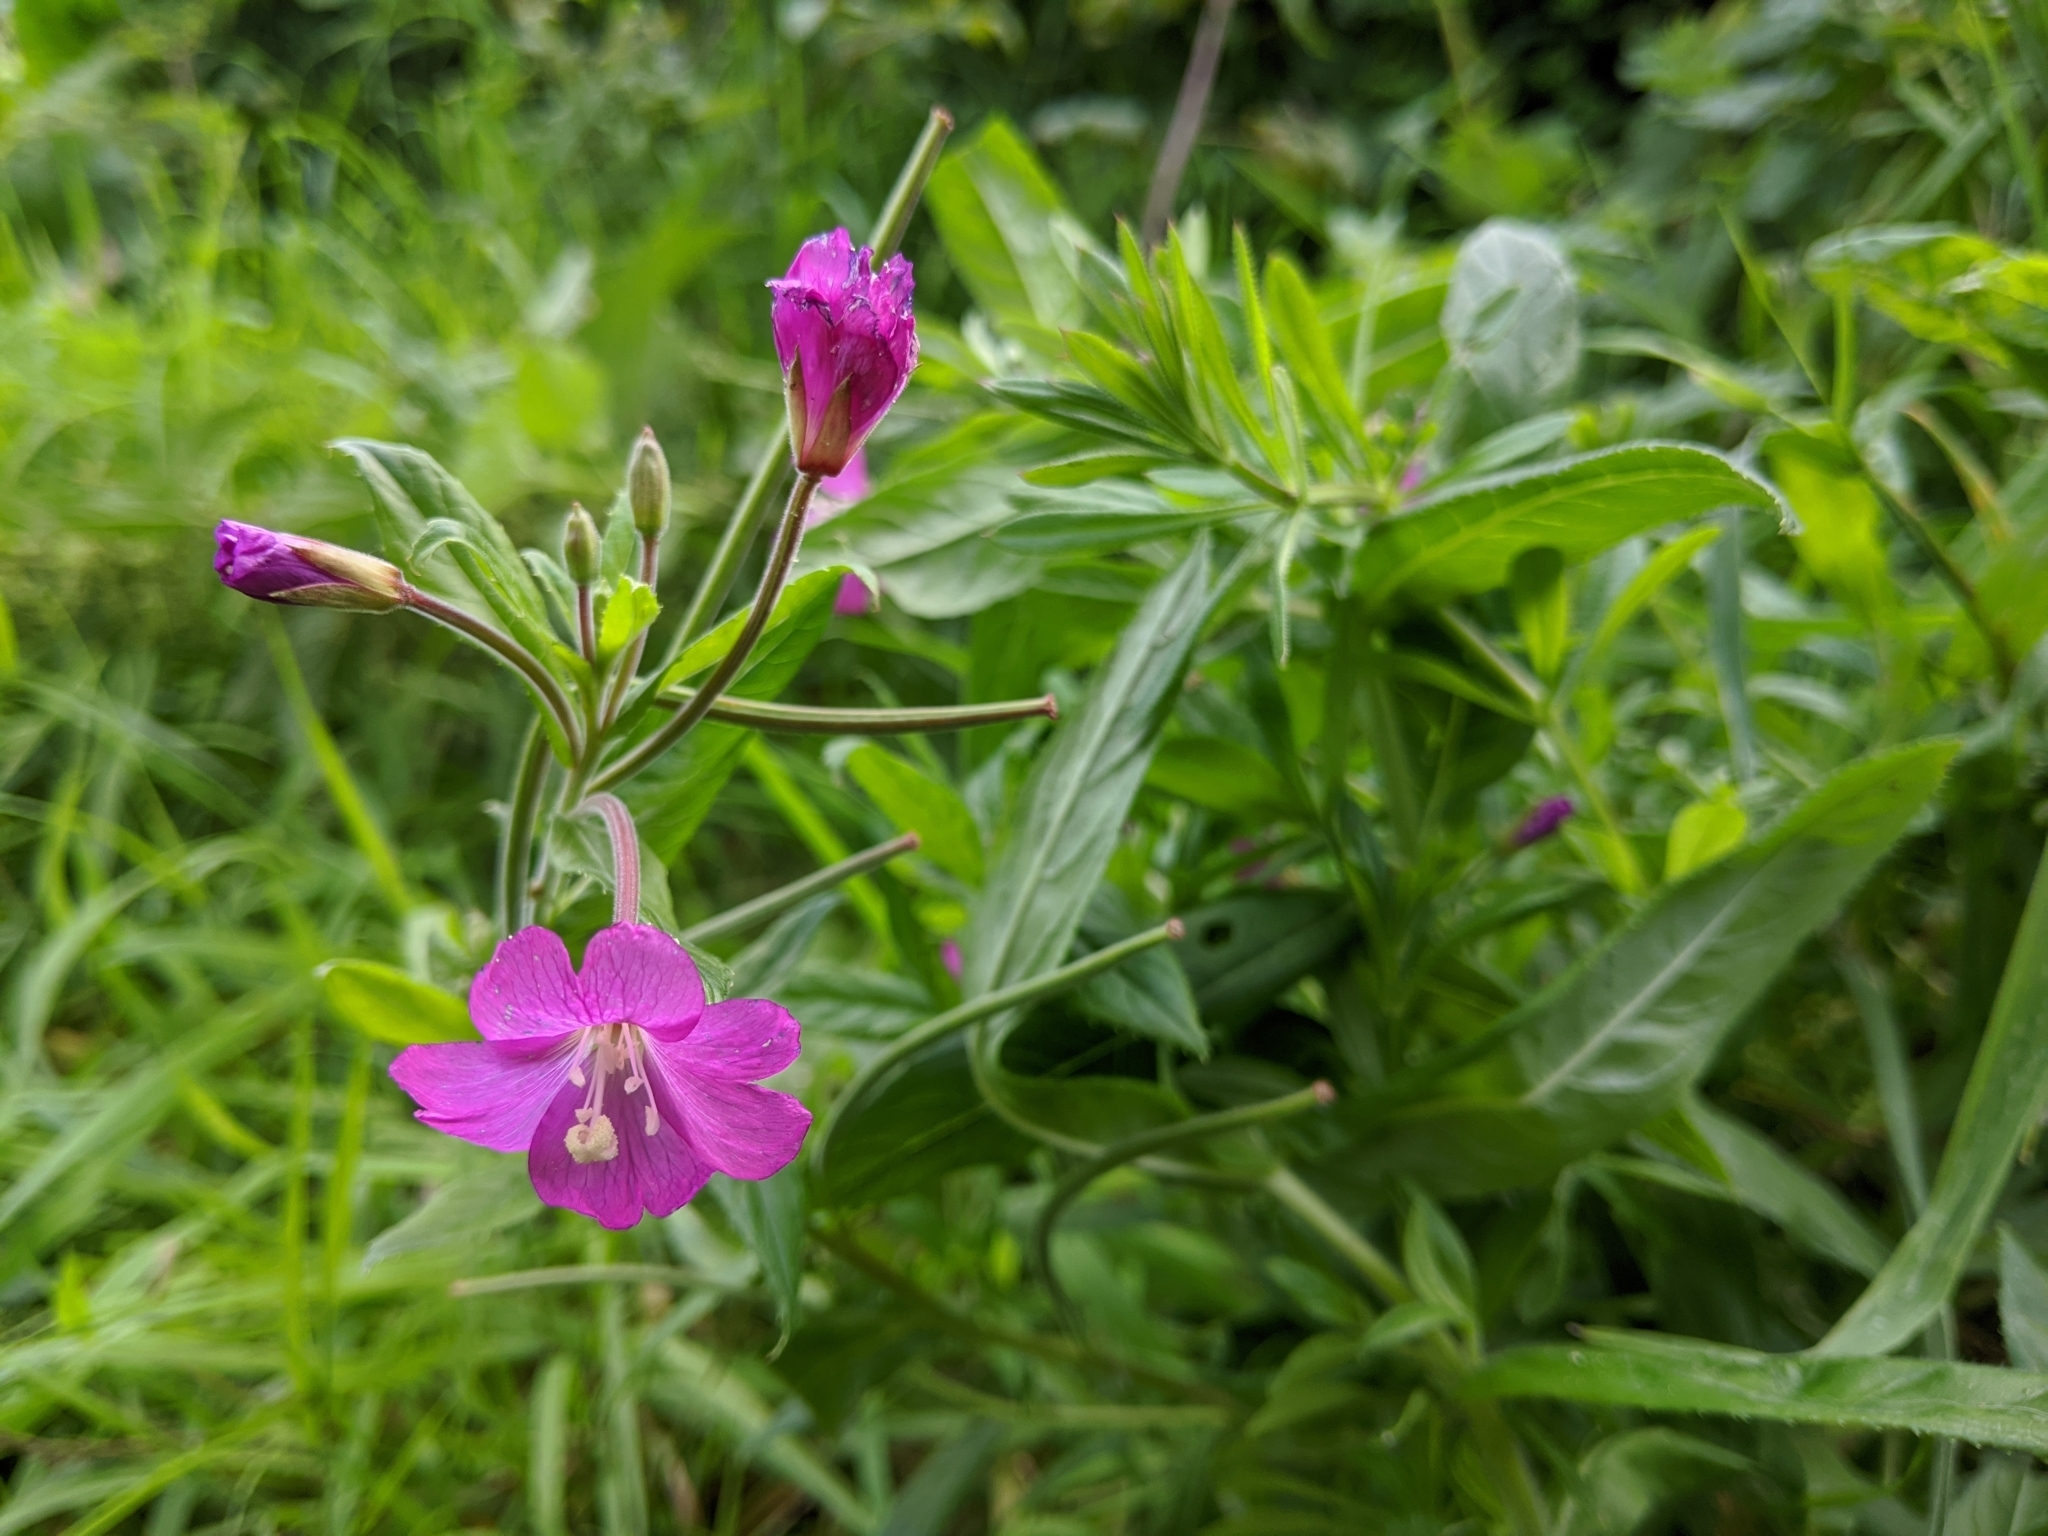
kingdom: Plantae
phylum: Tracheophyta
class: Magnoliopsida
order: Myrtales
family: Onagraceae
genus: Epilobium
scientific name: Epilobium hirsutum
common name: Great willowherb
